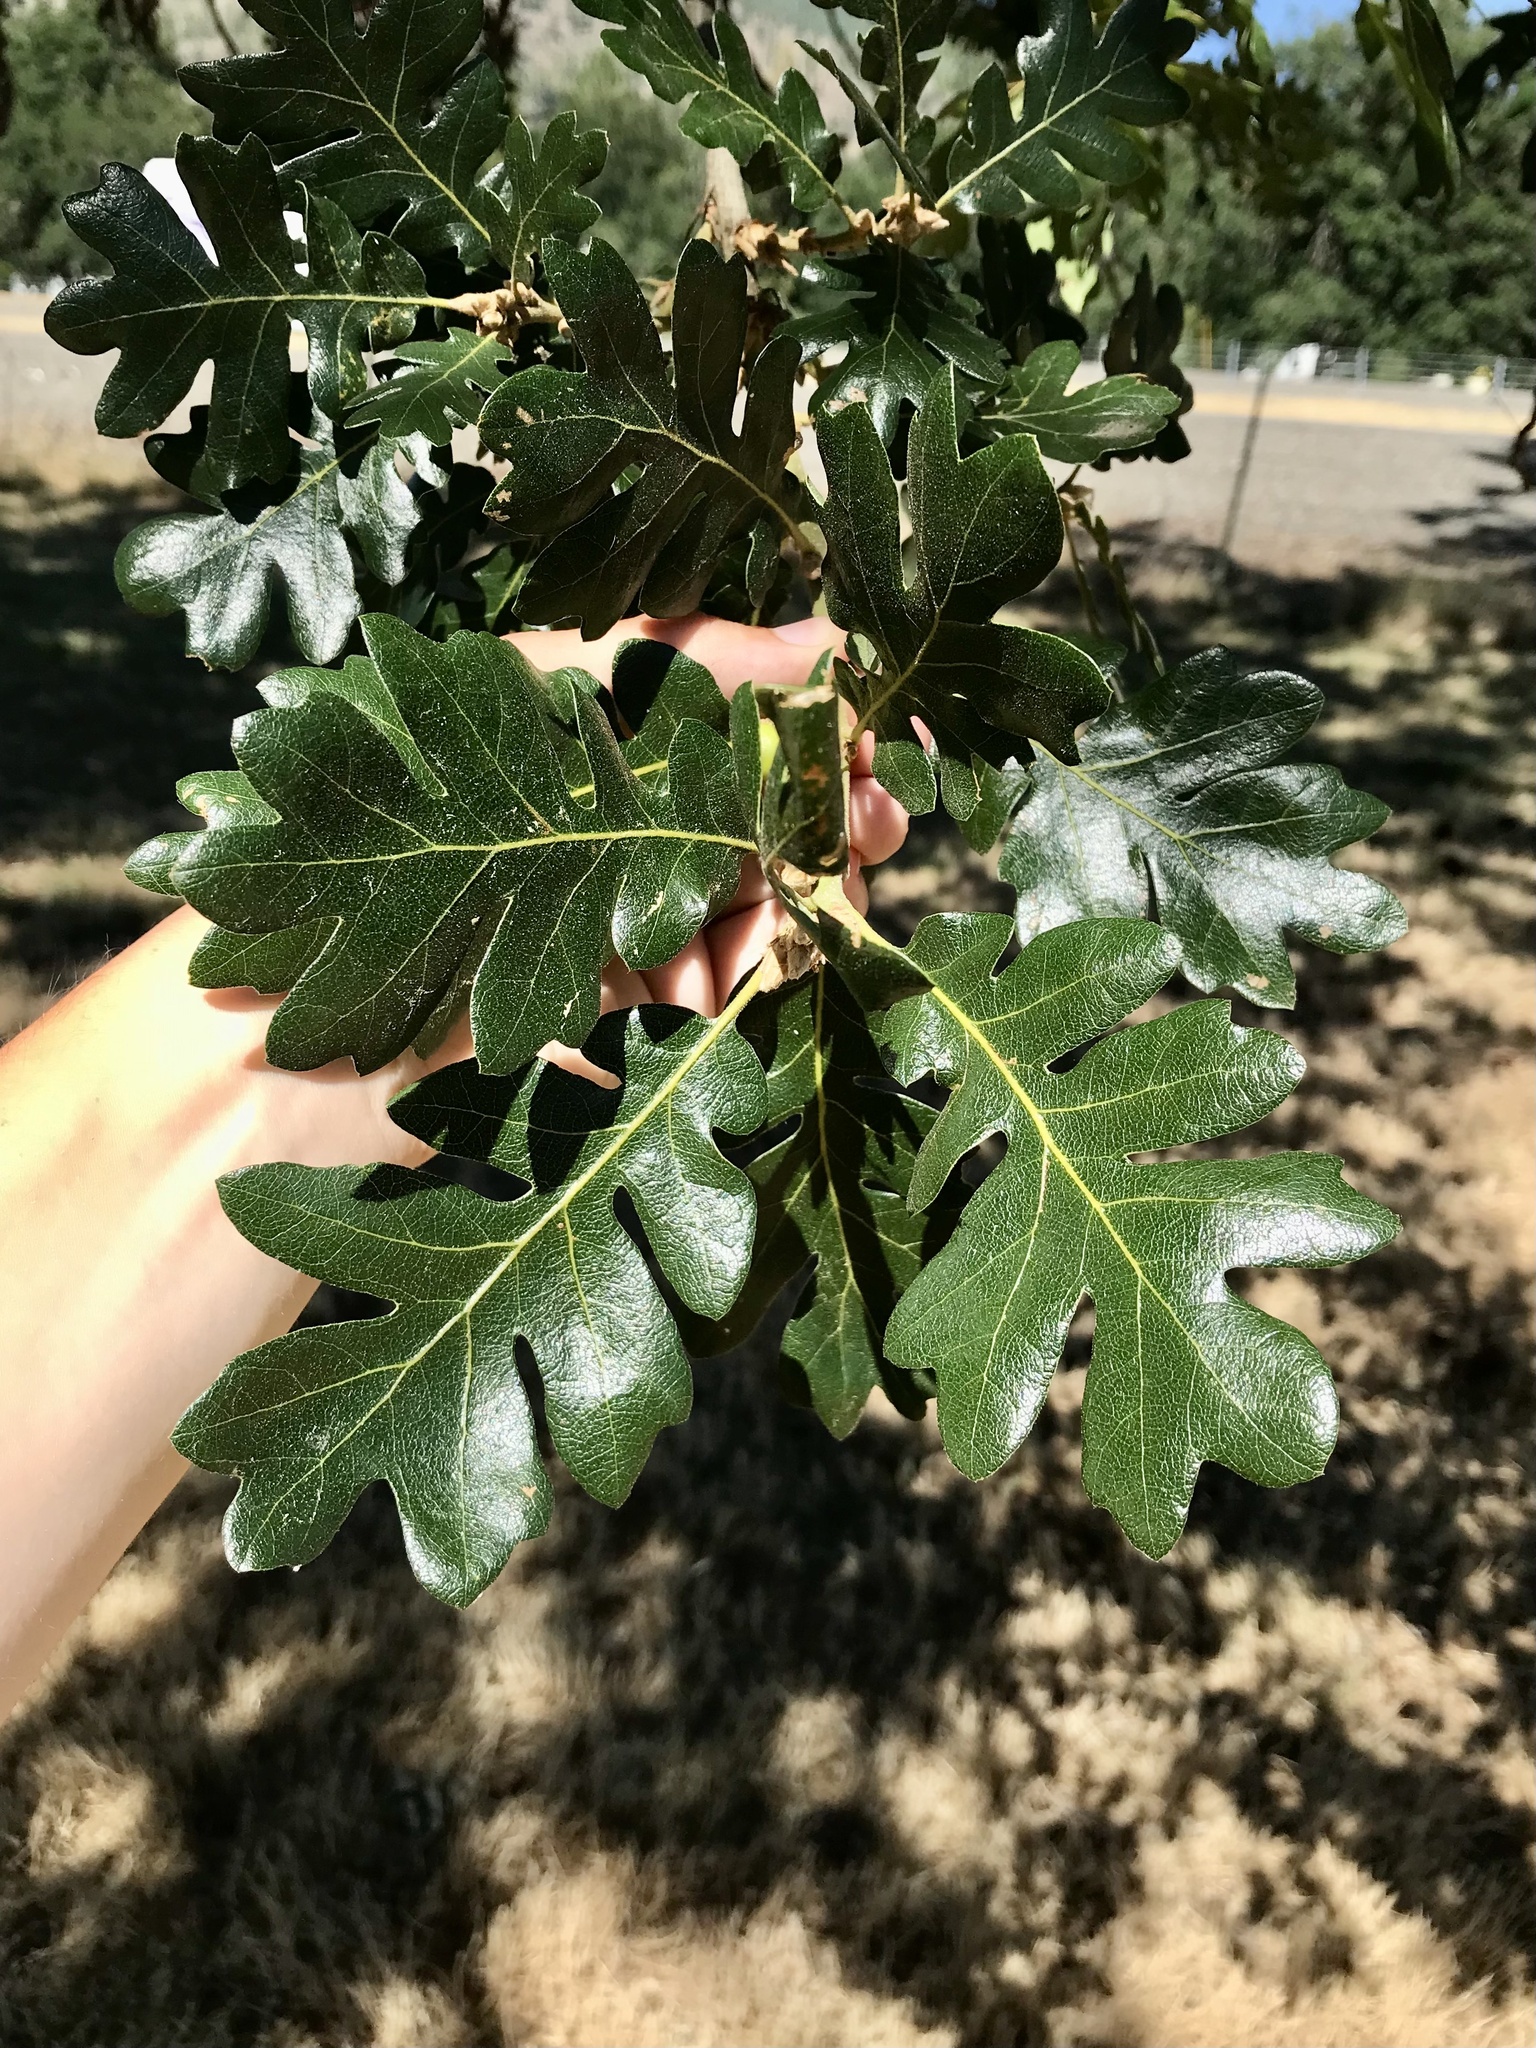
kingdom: Plantae
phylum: Tracheophyta
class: Magnoliopsida
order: Fagales
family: Fagaceae
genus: Quercus
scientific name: Quercus garryana
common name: Garry oak
